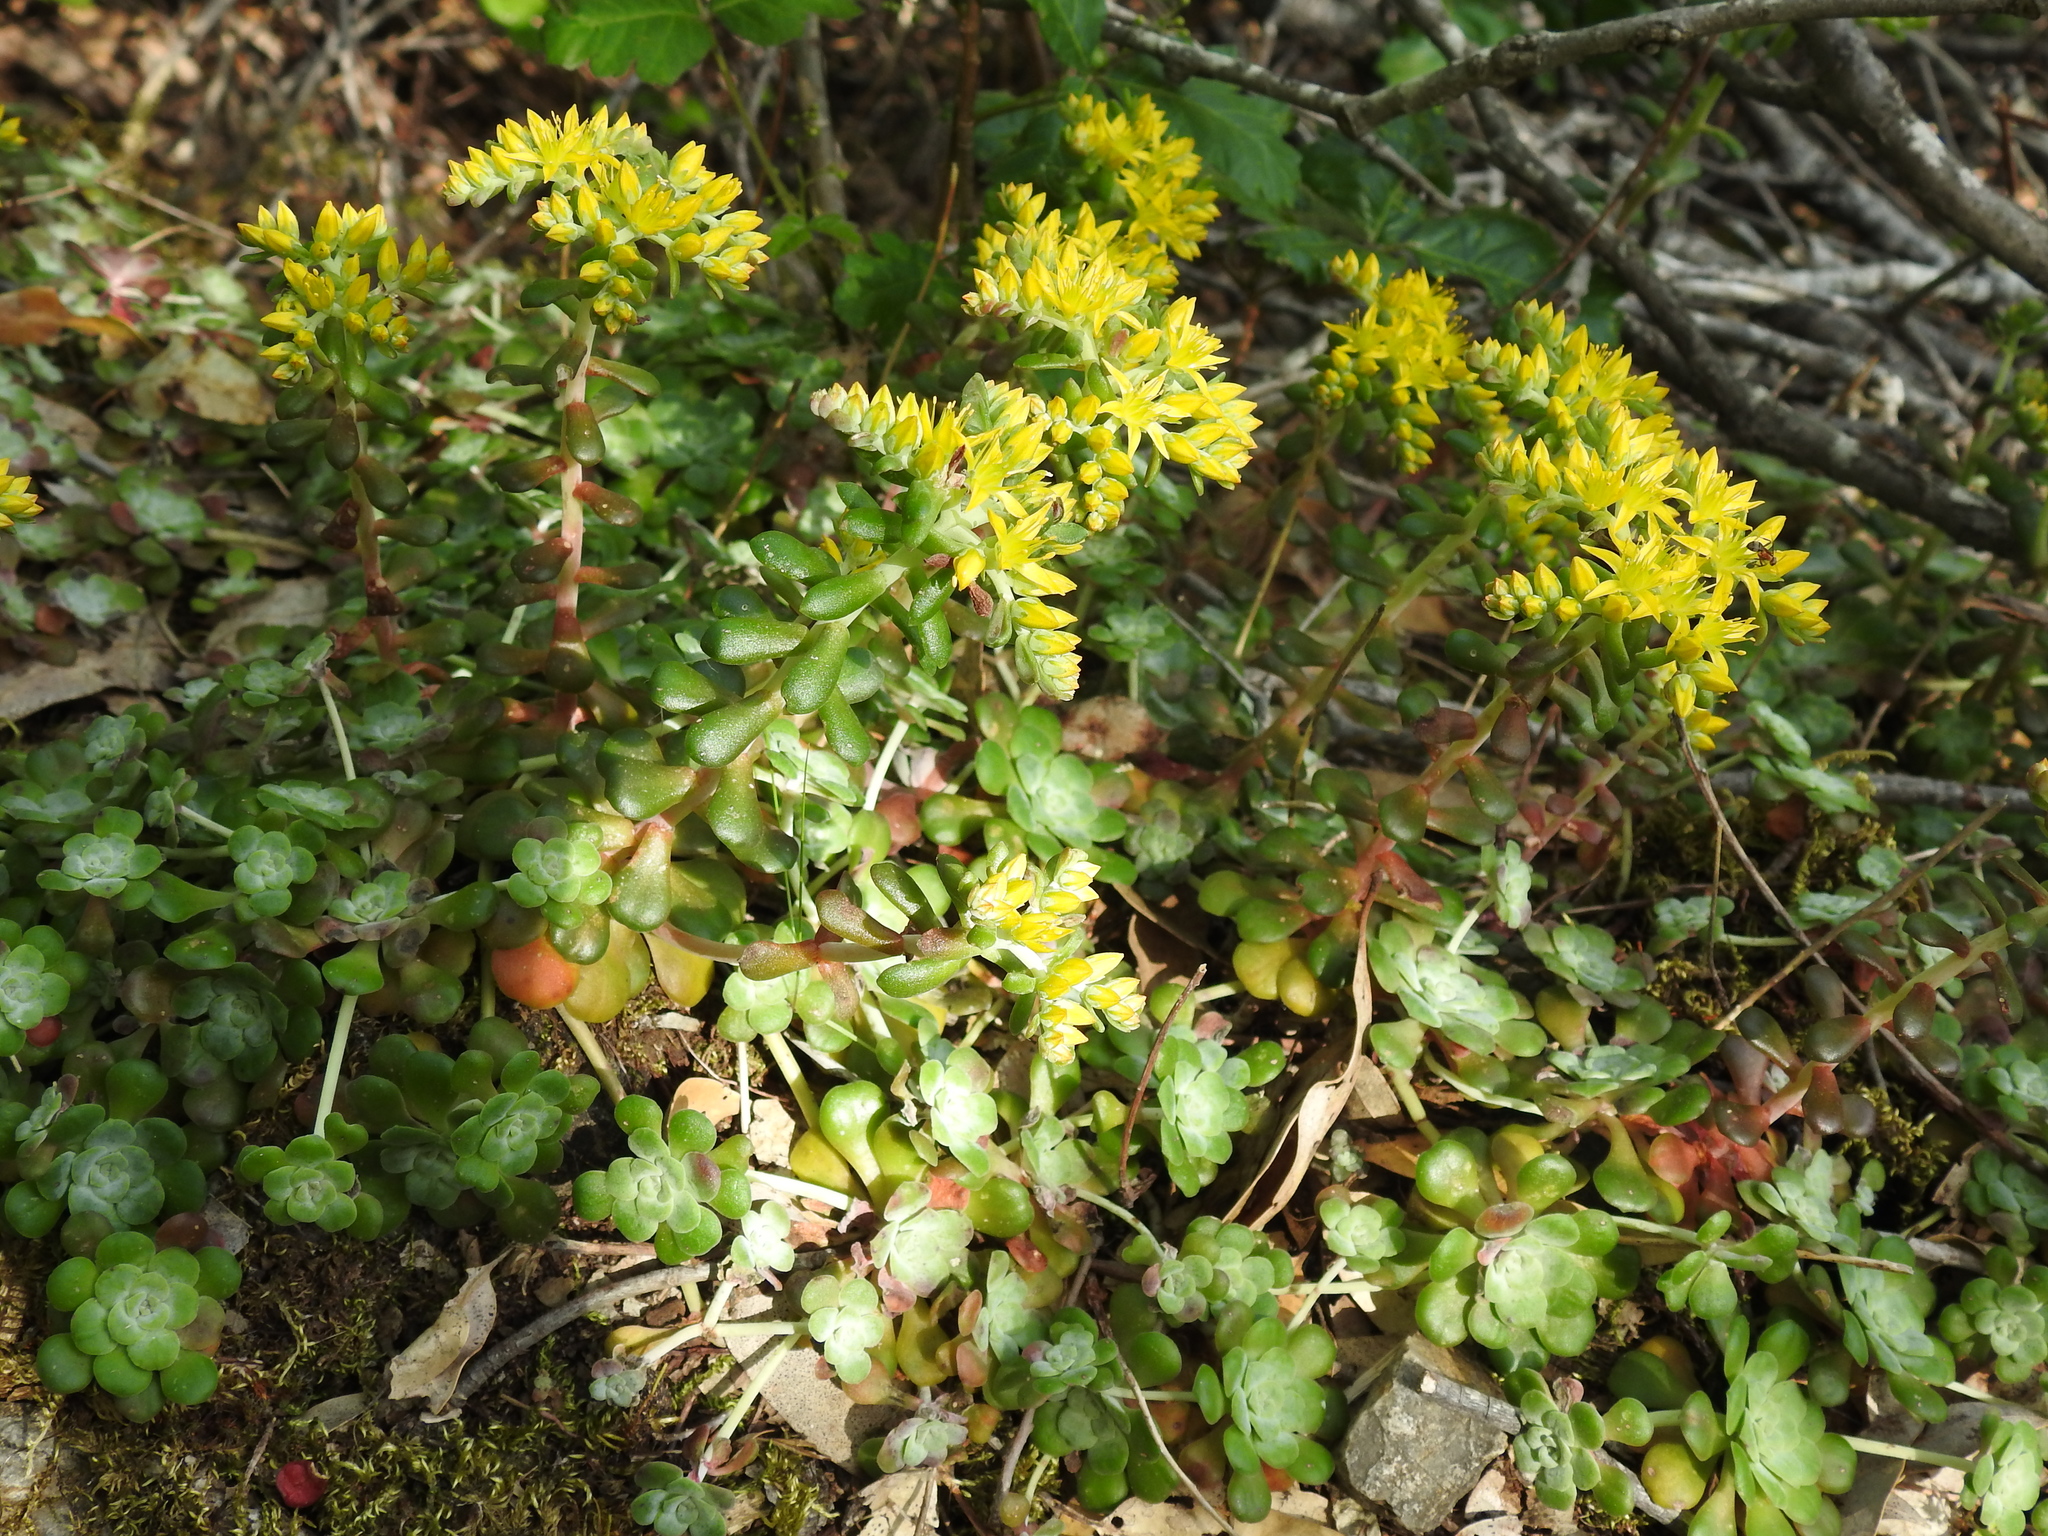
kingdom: Plantae
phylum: Tracheophyta
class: Magnoliopsida
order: Saxifragales
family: Crassulaceae
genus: Sedum
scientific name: Sedum spathulifolium
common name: Colorado stonecrop
